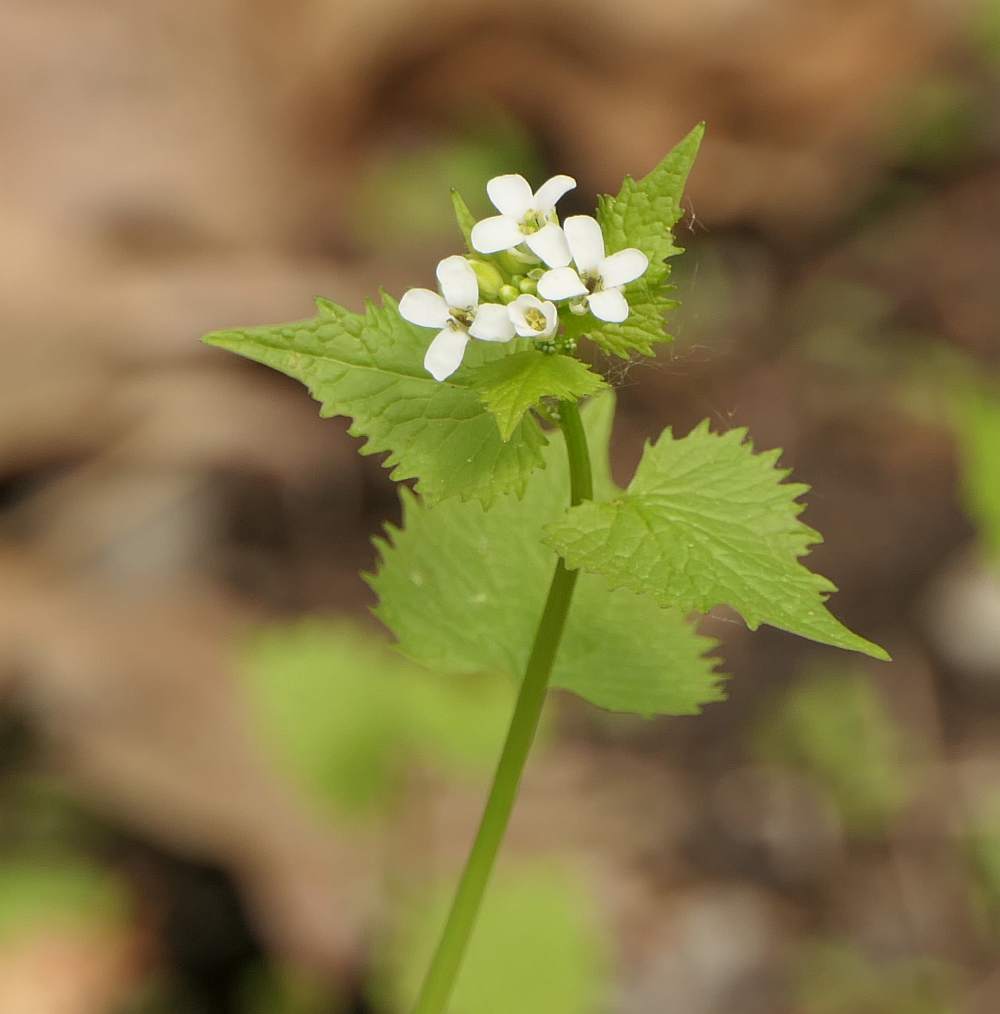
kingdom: Plantae
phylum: Tracheophyta
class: Magnoliopsida
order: Brassicales
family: Brassicaceae
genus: Alliaria
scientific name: Alliaria petiolata
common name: Garlic mustard
